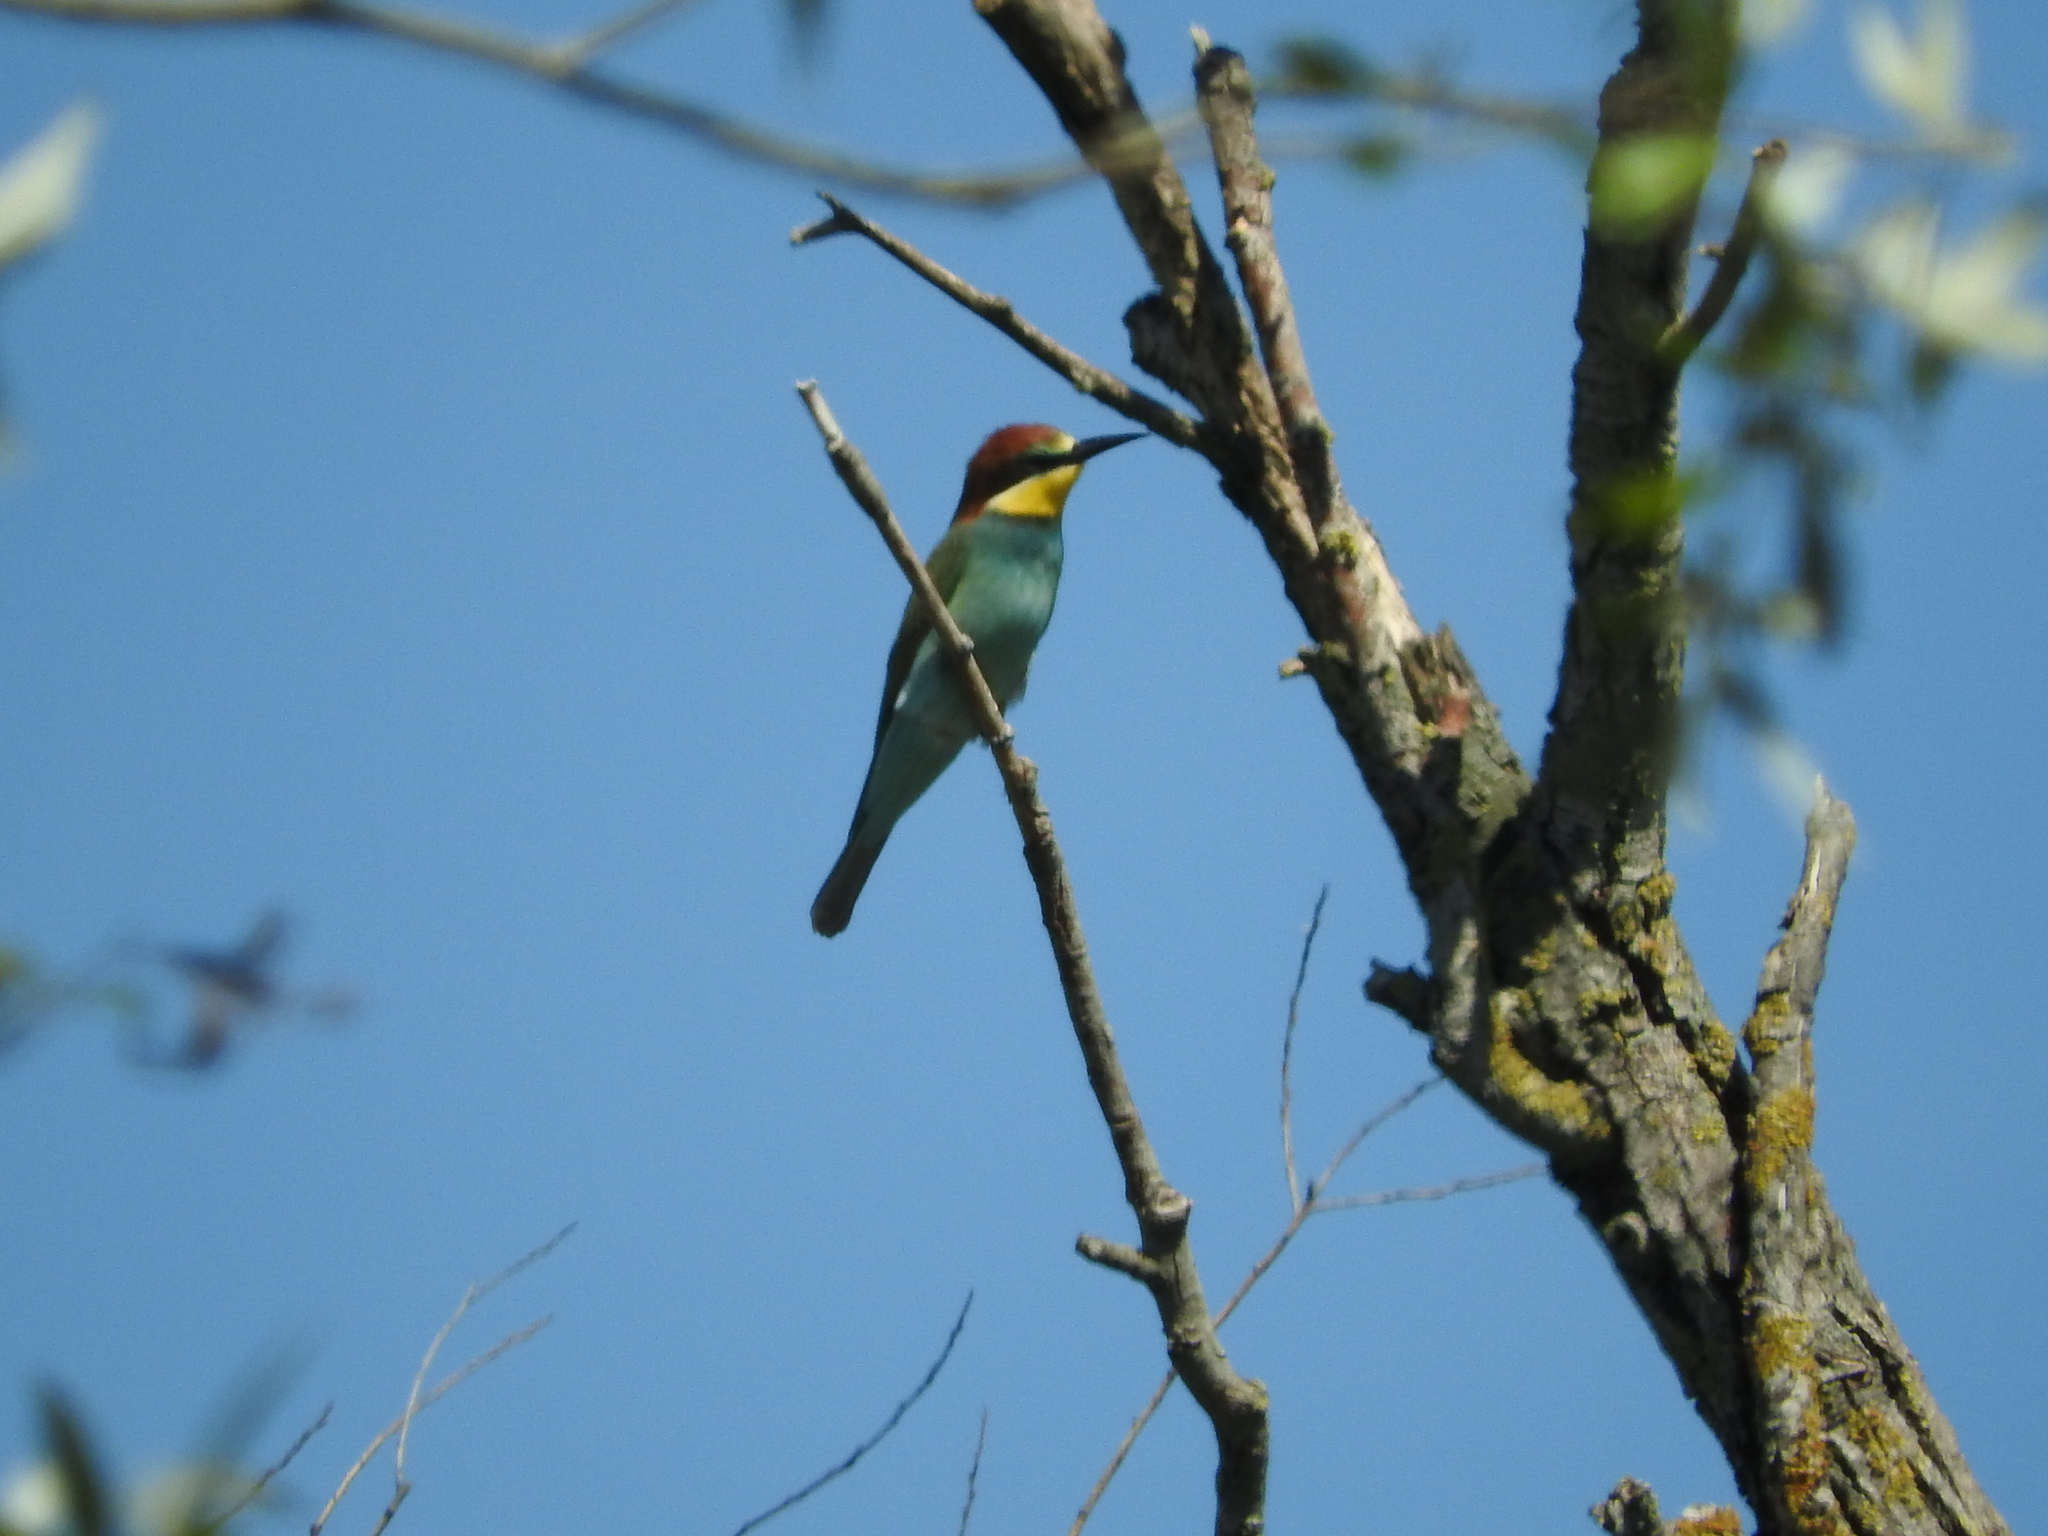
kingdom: Animalia
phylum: Chordata
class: Aves
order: Coraciiformes
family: Meropidae
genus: Merops
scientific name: Merops apiaster
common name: European bee-eater
